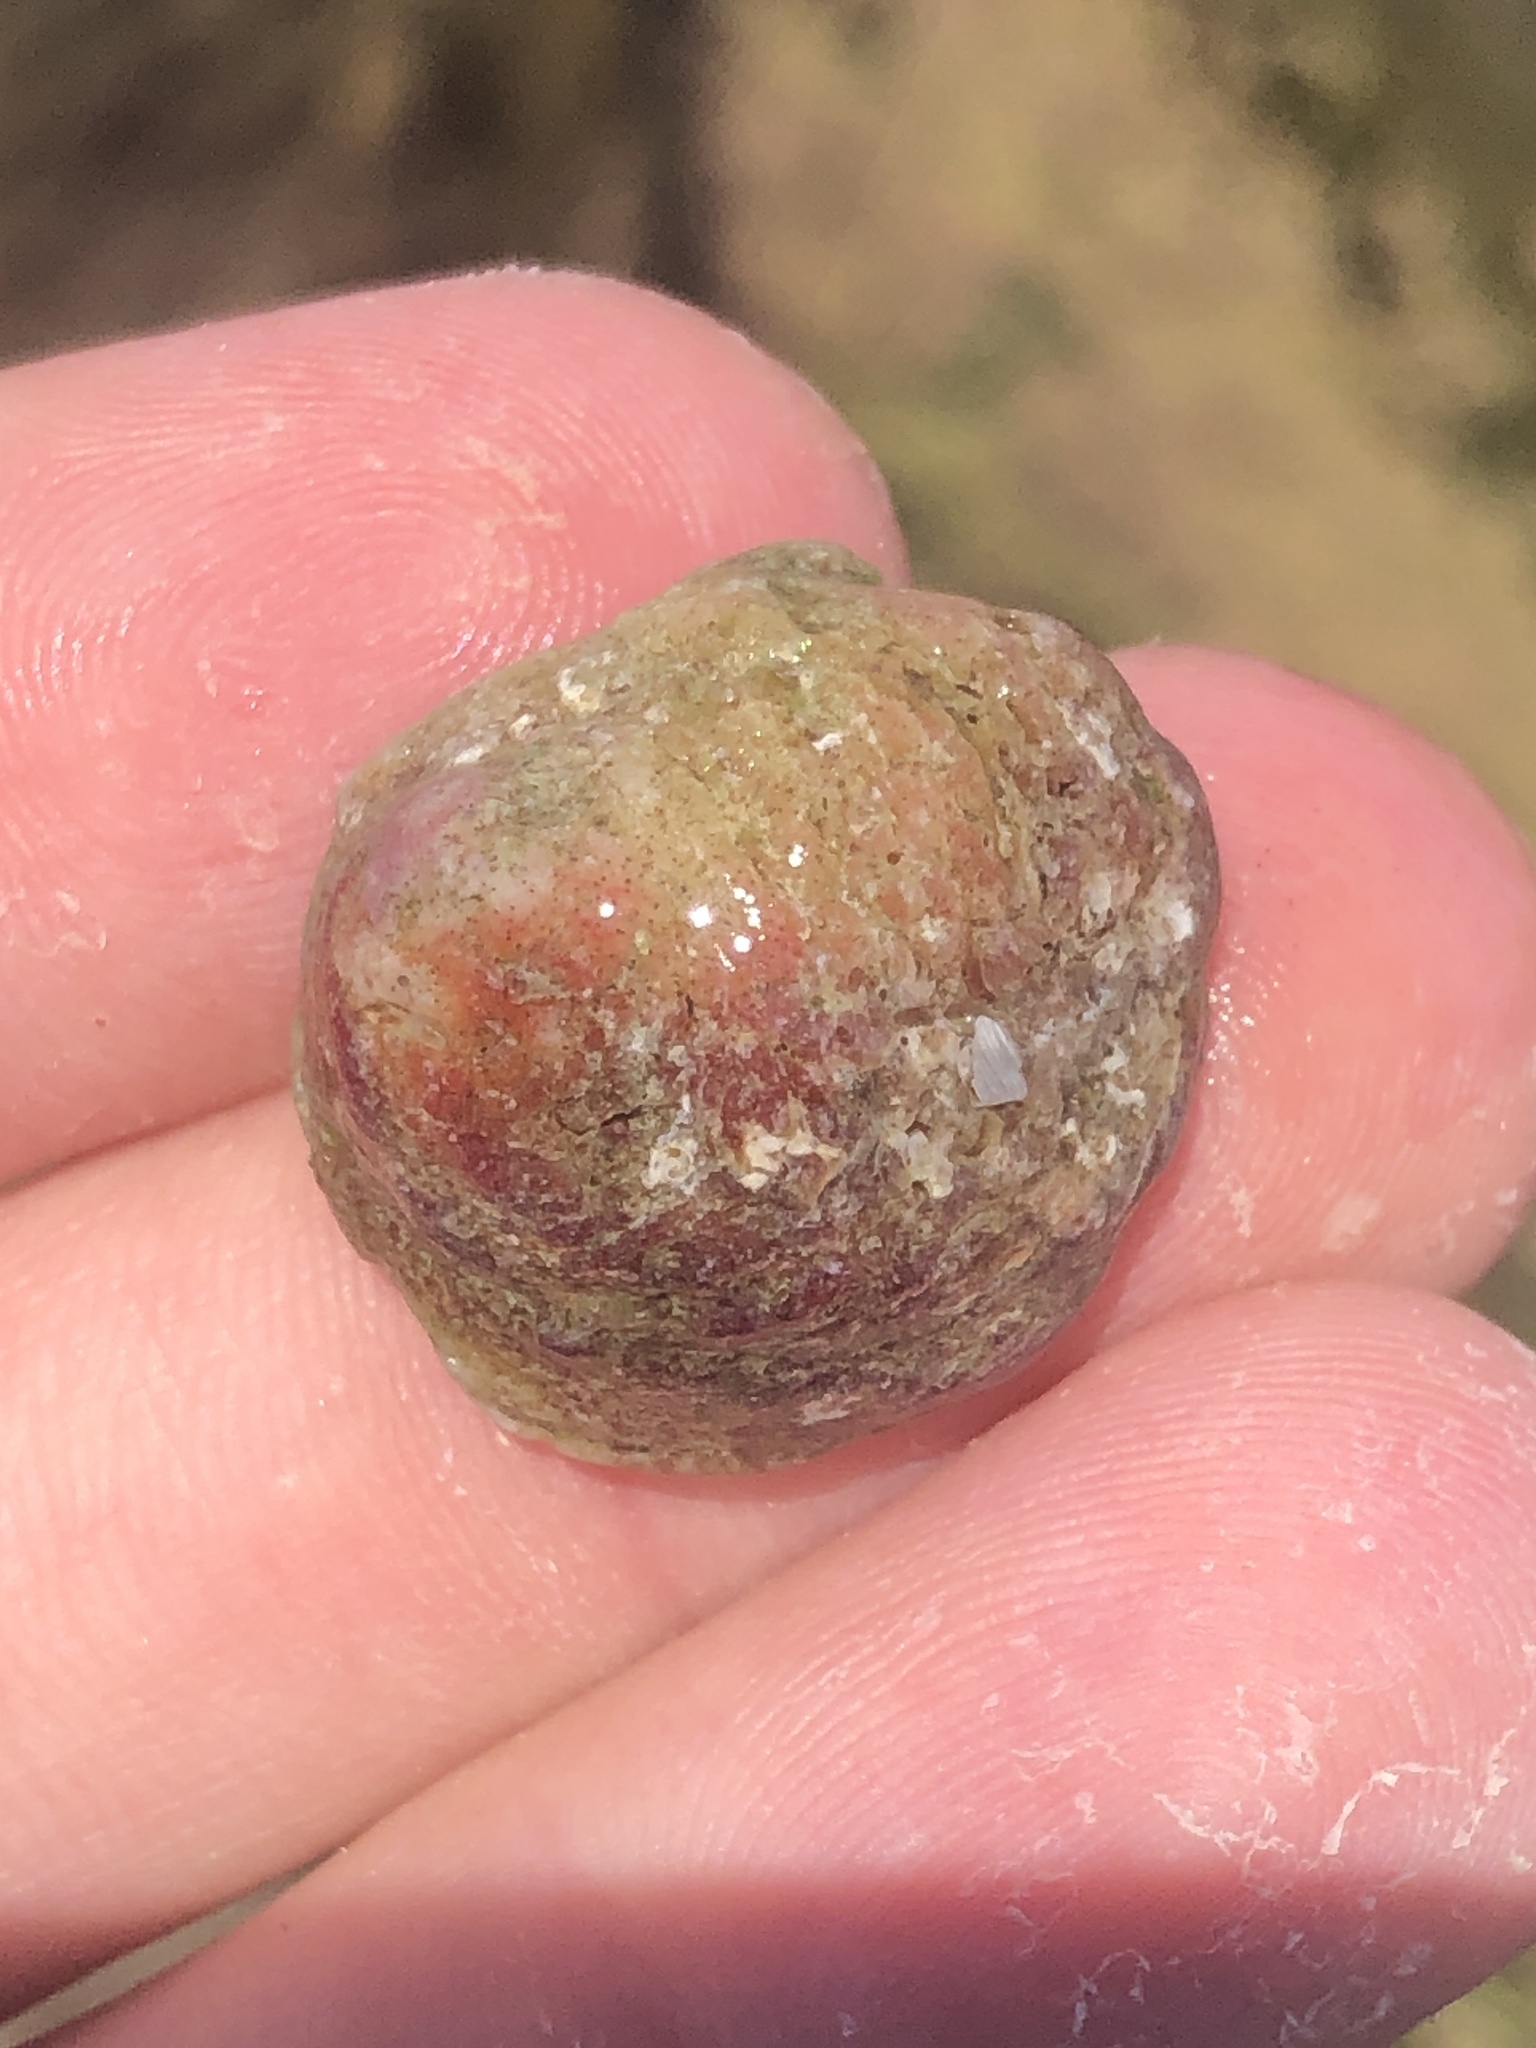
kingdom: Animalia
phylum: Mollusca
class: Bivalvia
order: Venerida
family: Chamidae
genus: Chama
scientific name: Chama arcana
